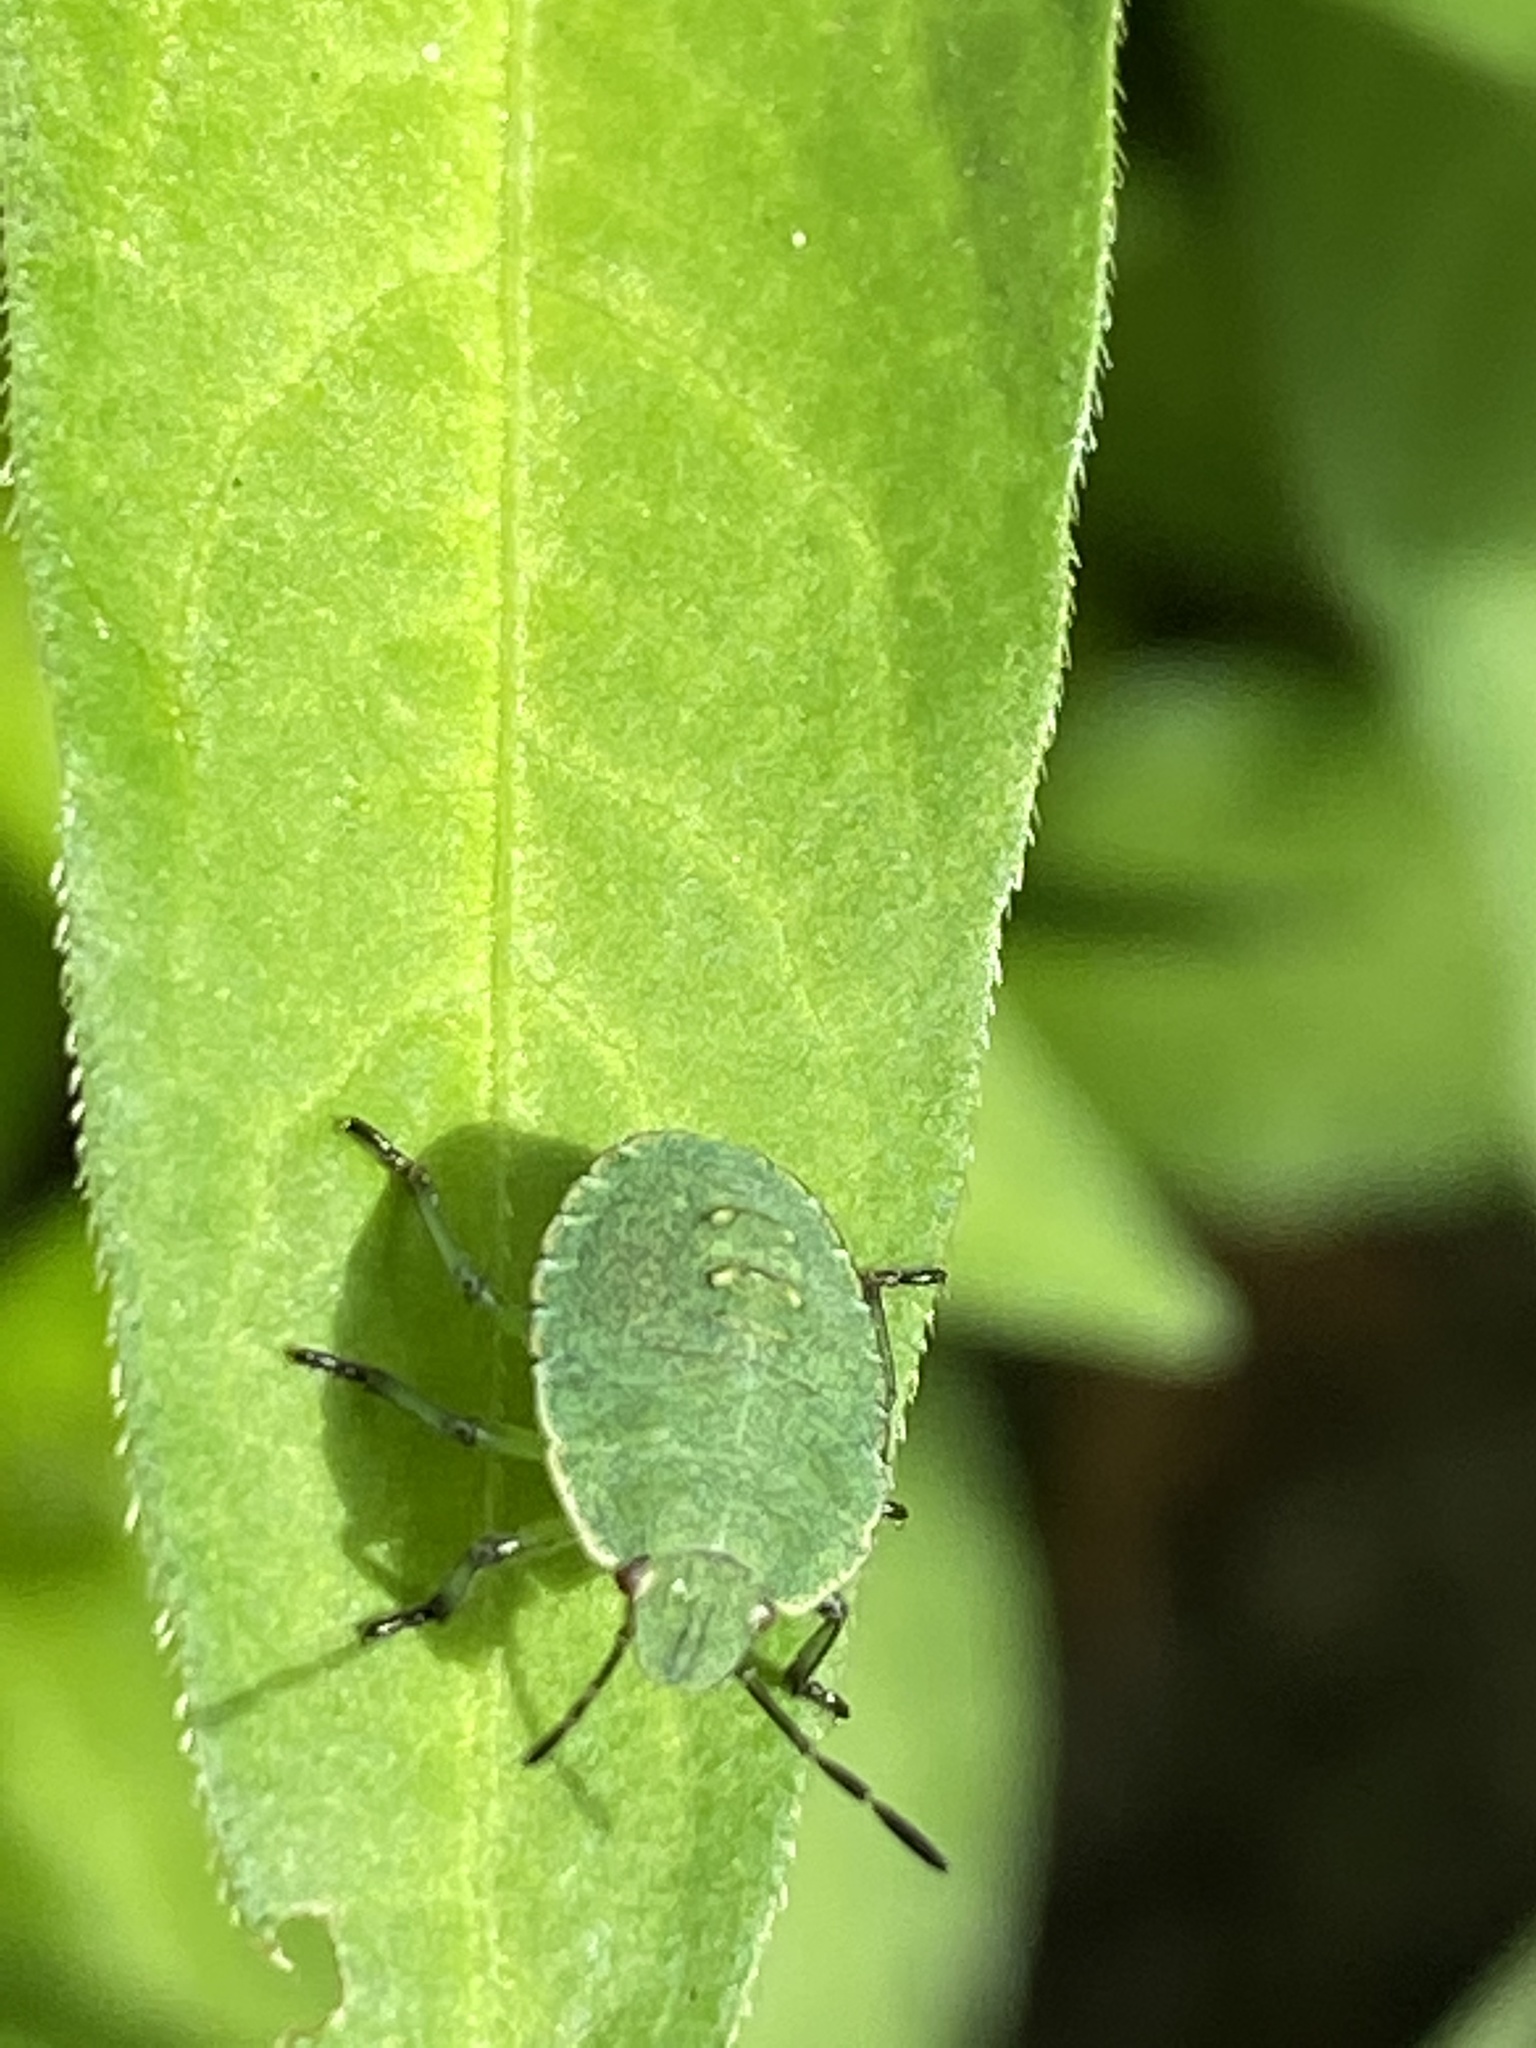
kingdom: Animalia
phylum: Arthropoda
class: Insecta
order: Hemiptera
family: Pentatomidae
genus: Palomena
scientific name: Palomena prasina
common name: Green shieldbug
